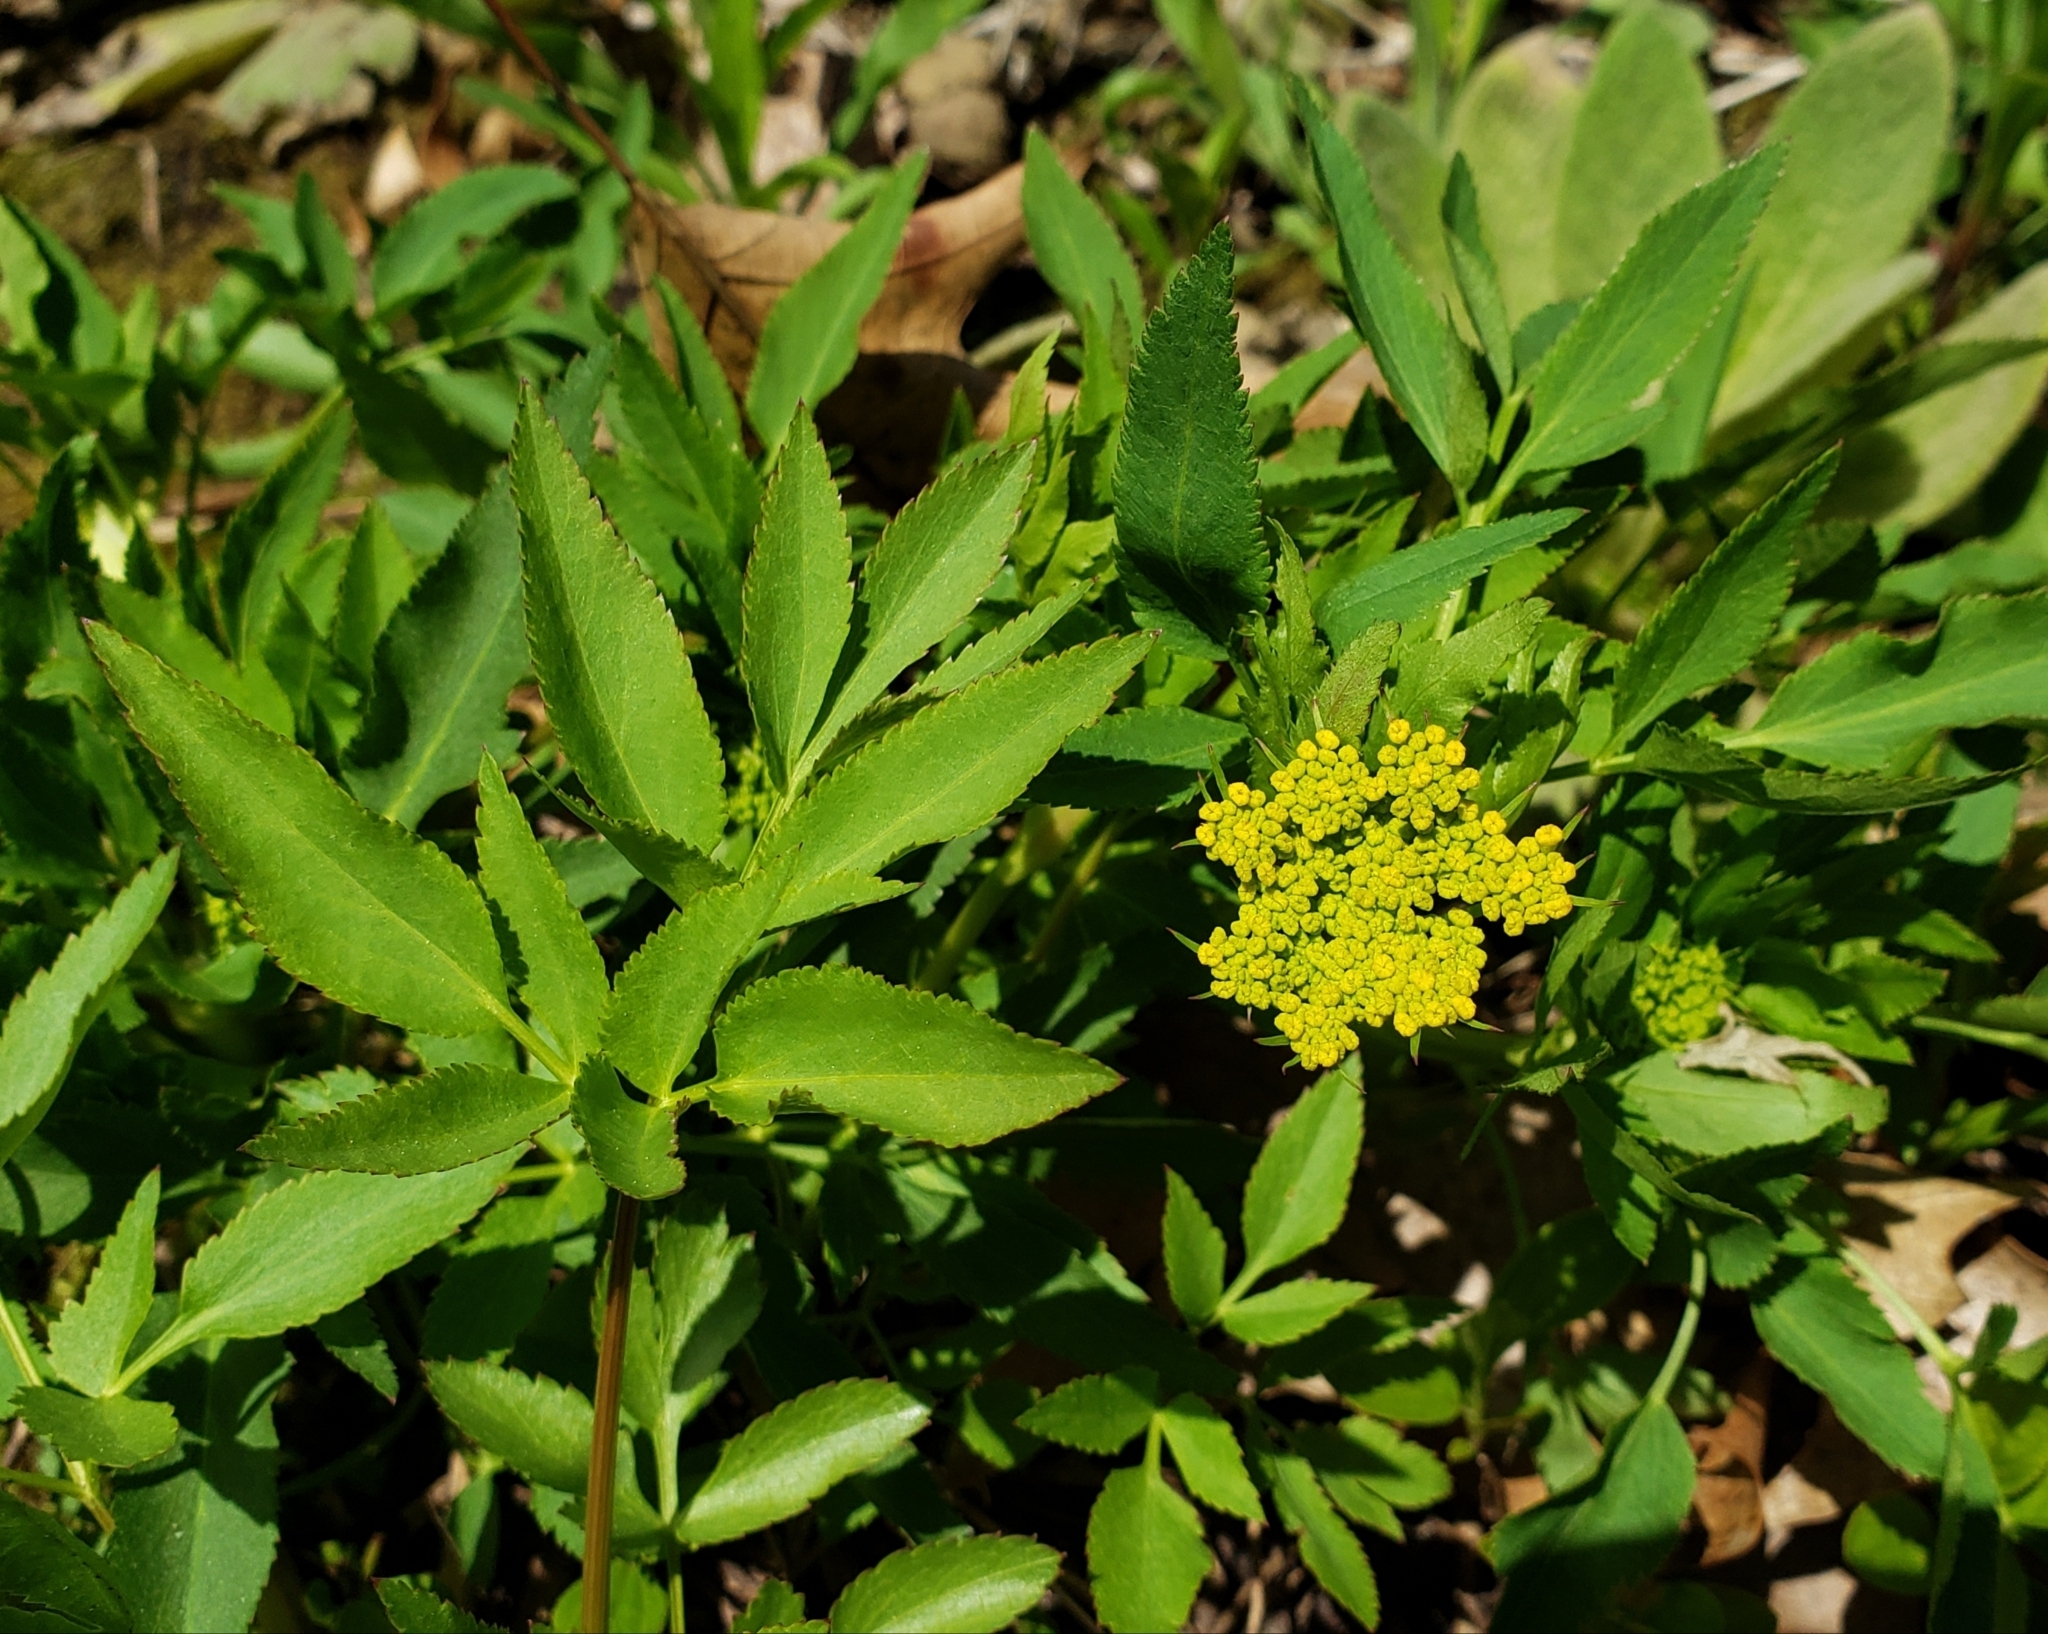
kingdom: Plantae
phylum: Tracheophyta
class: Magnoliopsida
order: Apiales
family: Apiaceae
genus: Zizia
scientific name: Zizia aurea
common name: Golden alexanders
